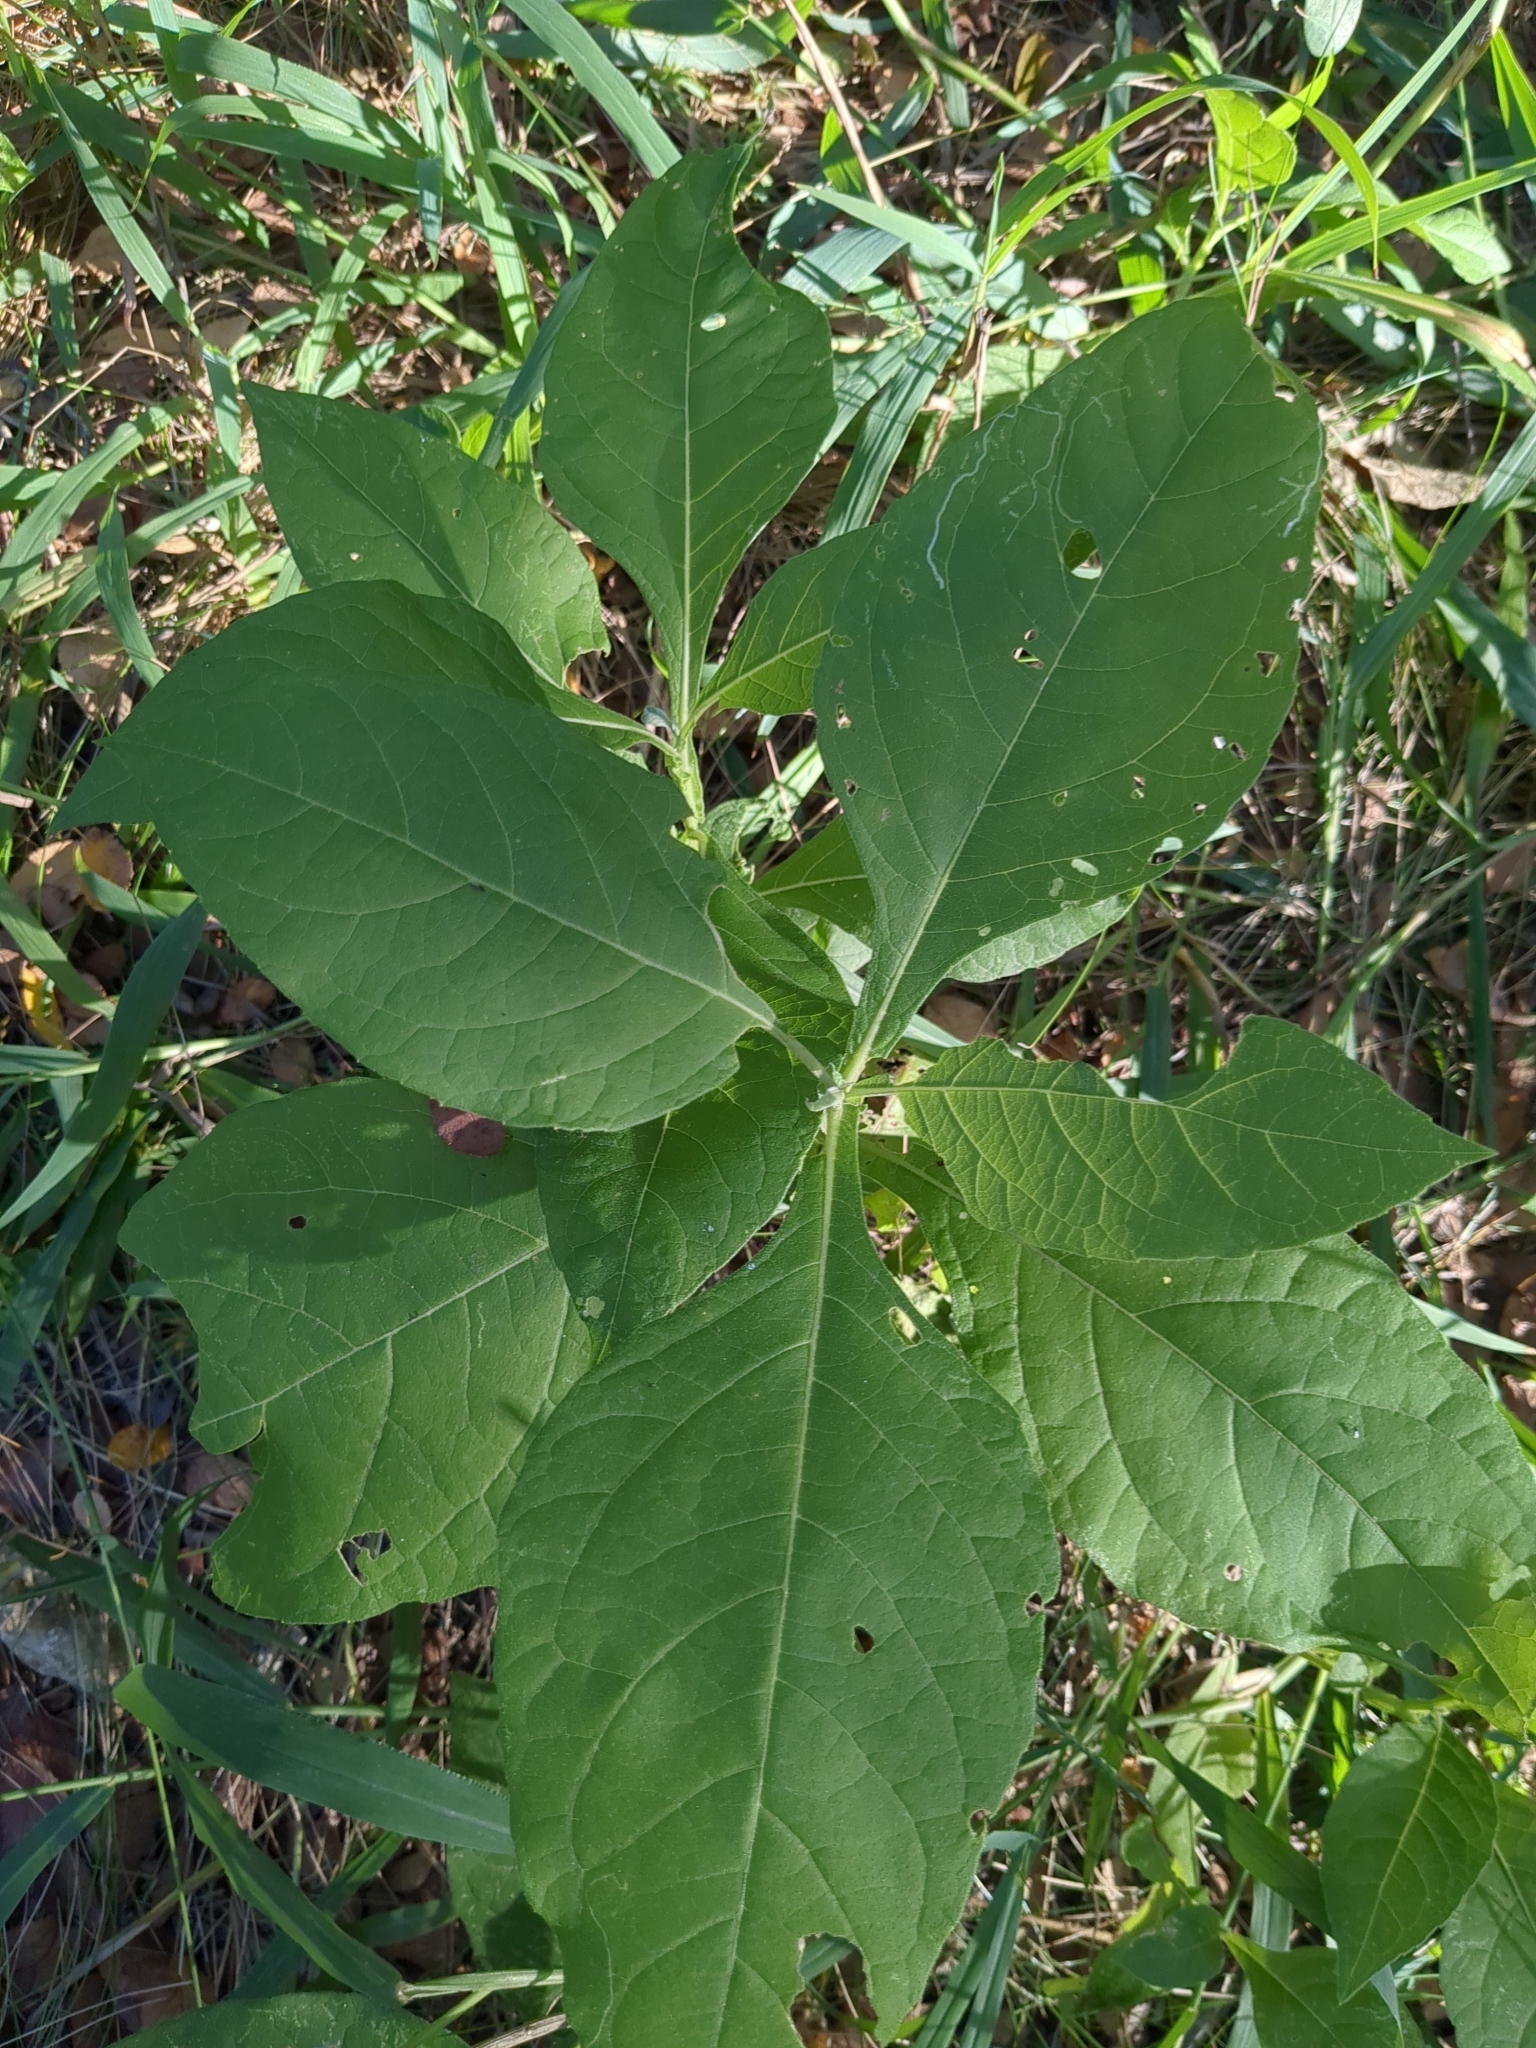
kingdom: Plantae
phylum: Tracheophyta
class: Magnoliopsida
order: Asterales
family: Asteraceae
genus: Verbesina
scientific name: Verbesina virginica
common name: Frostweed
